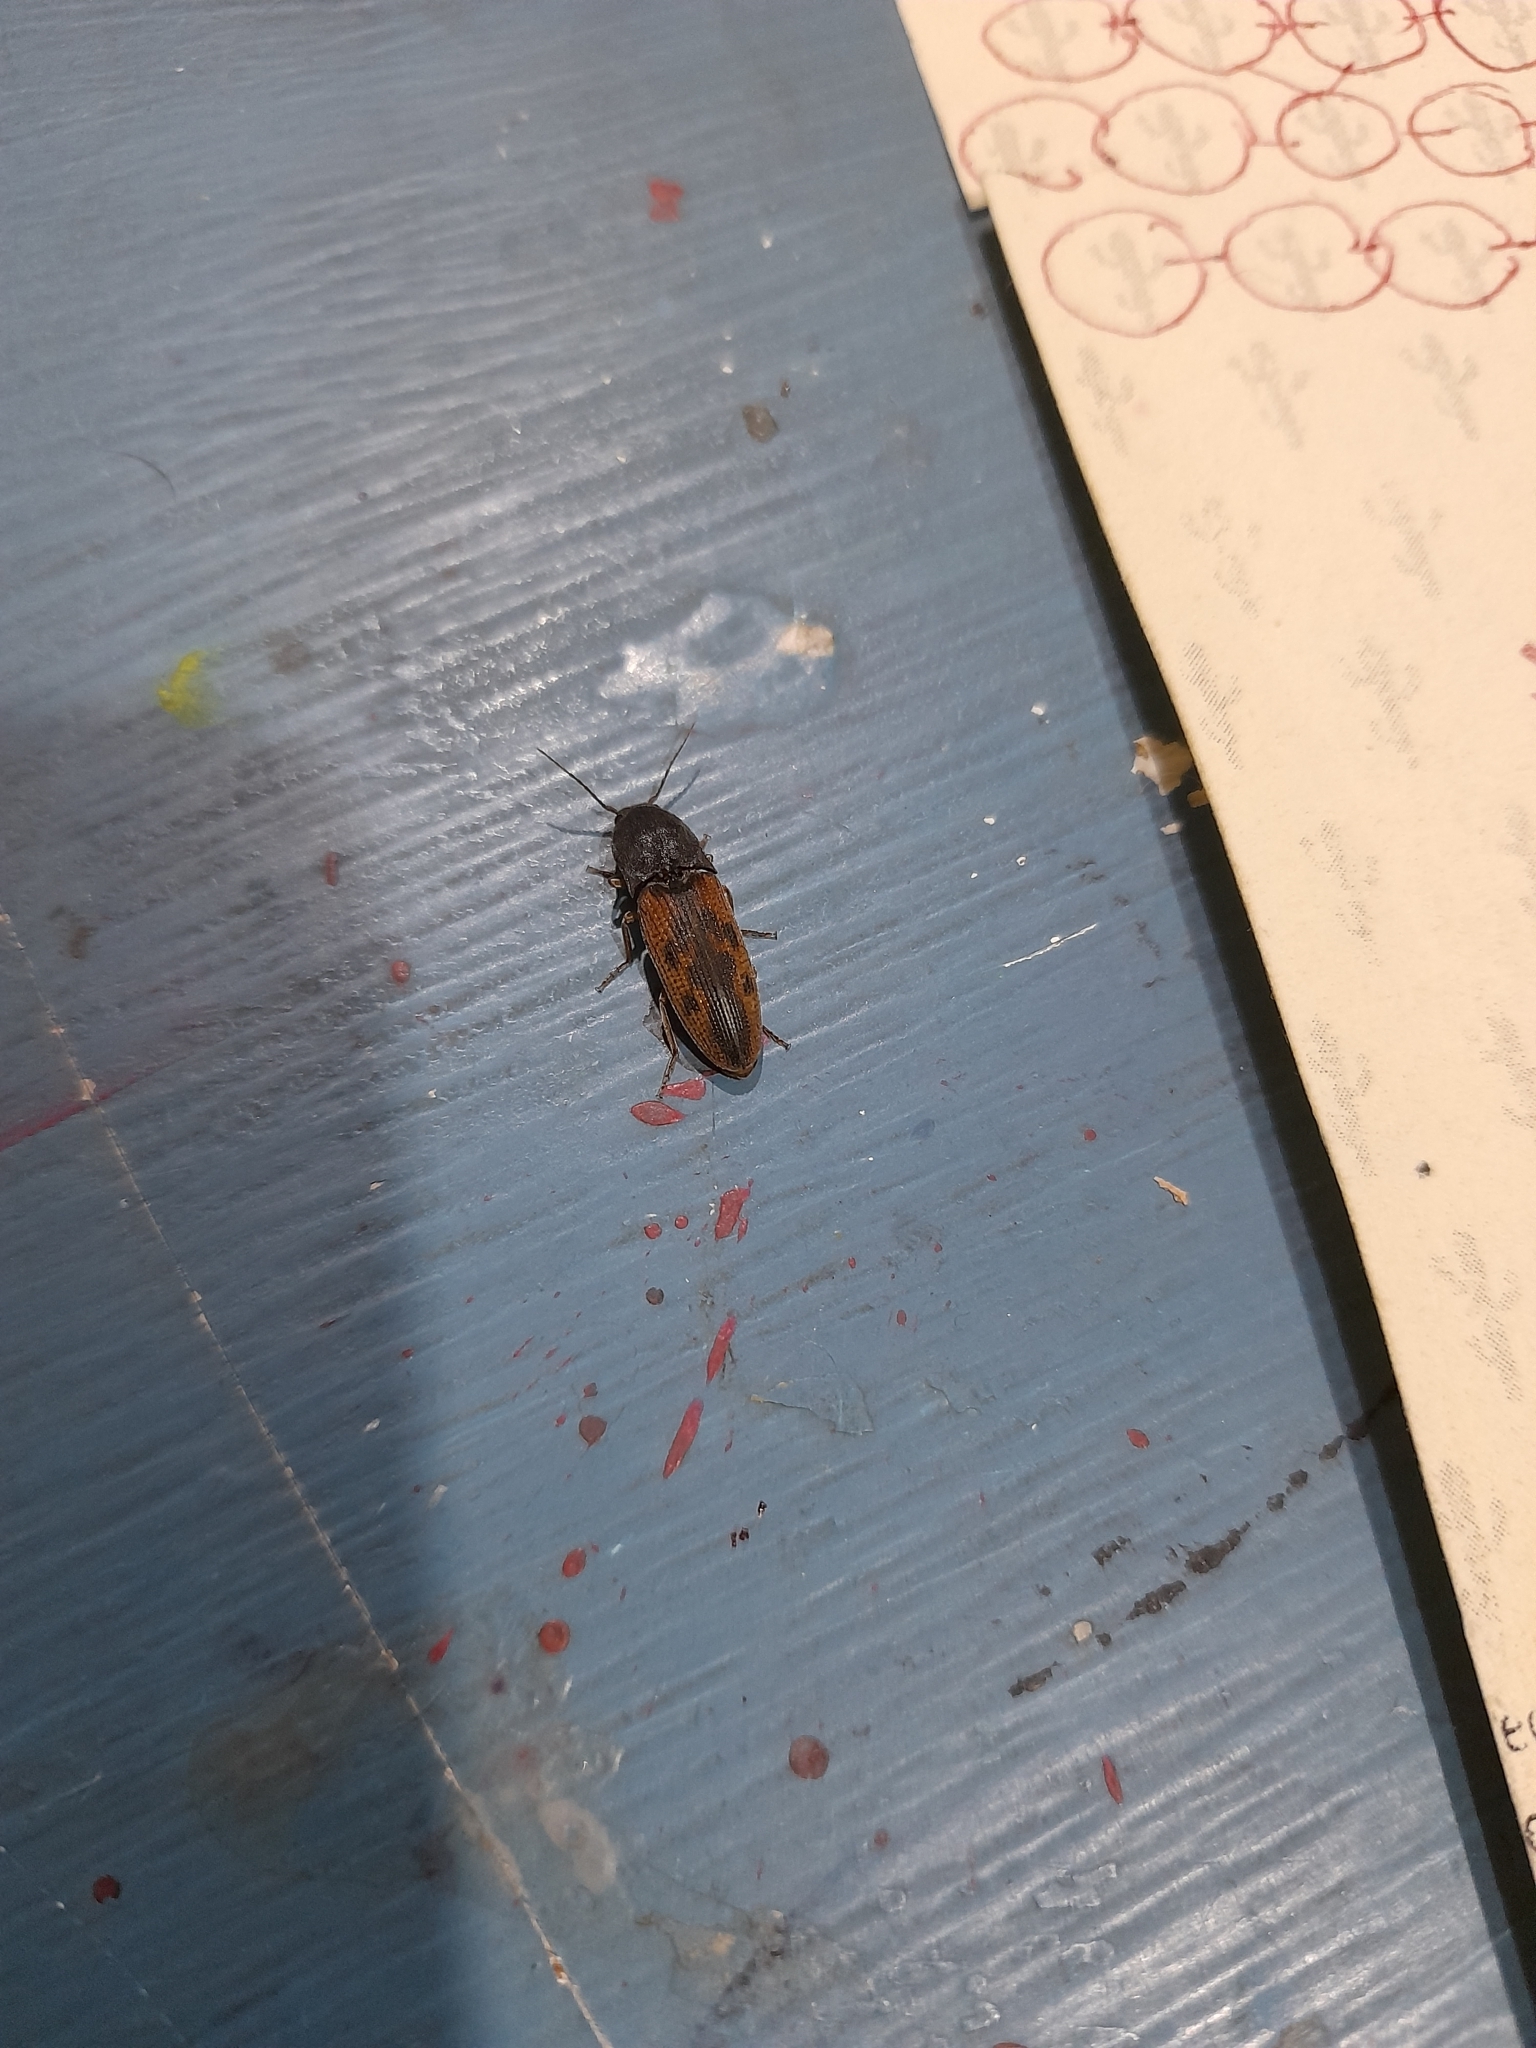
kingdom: Animalia
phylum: Arthropoda
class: Insecta
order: Coleoptera
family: Elateridae
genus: Monocrepidius
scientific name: Monocrepidius
